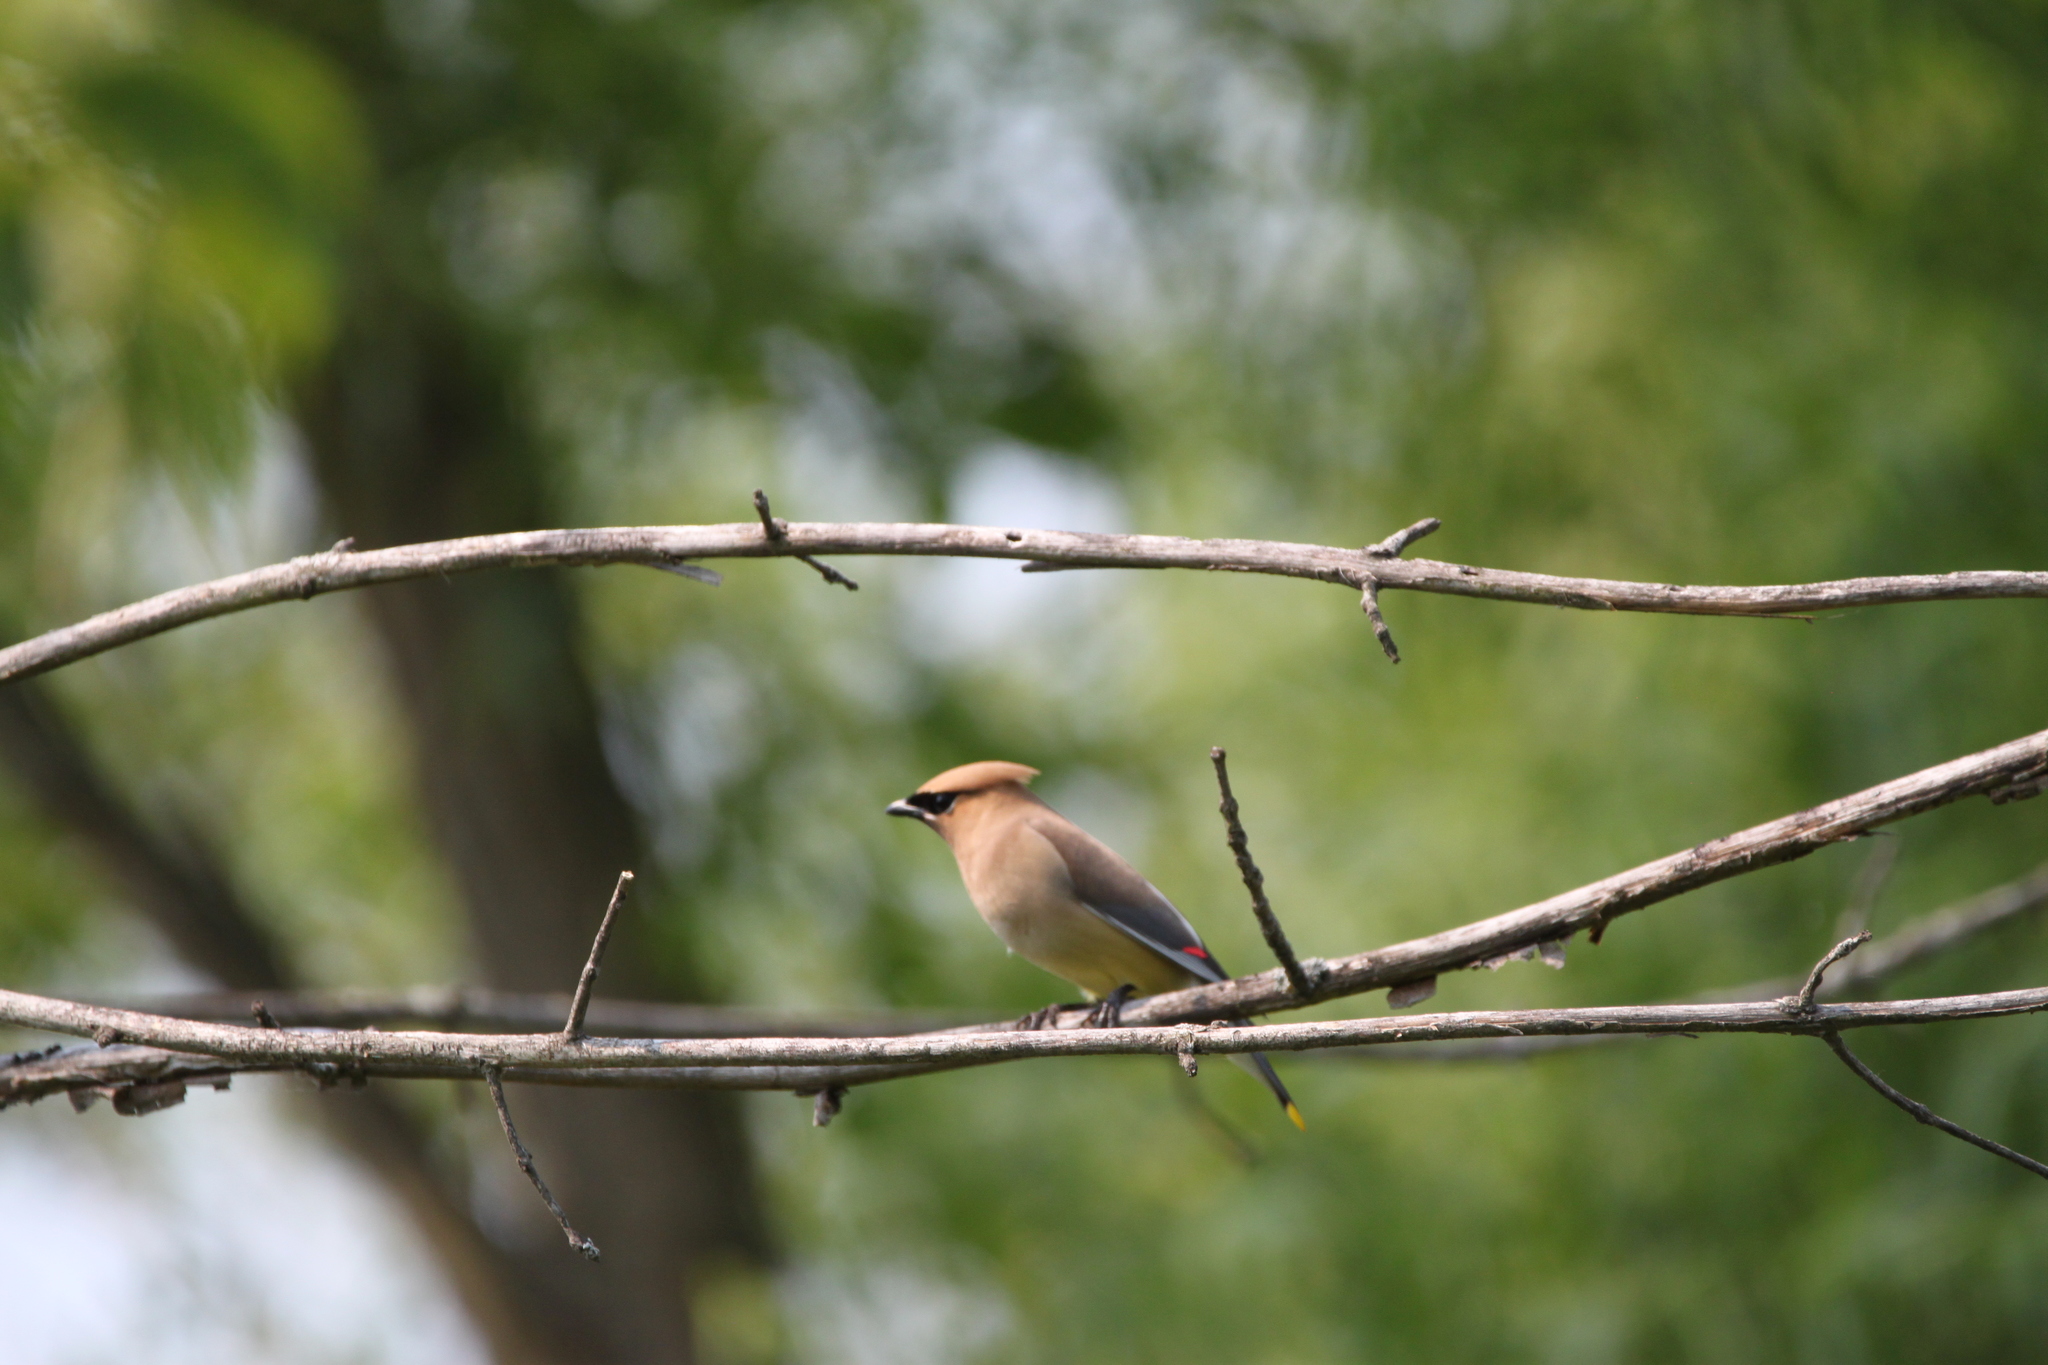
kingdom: Animalia
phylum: Chordata
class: Aves
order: Passeriformes
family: Bombycillidae
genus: Bombycilla
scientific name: Bombycilla cedrorum
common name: Cedar waxwing
